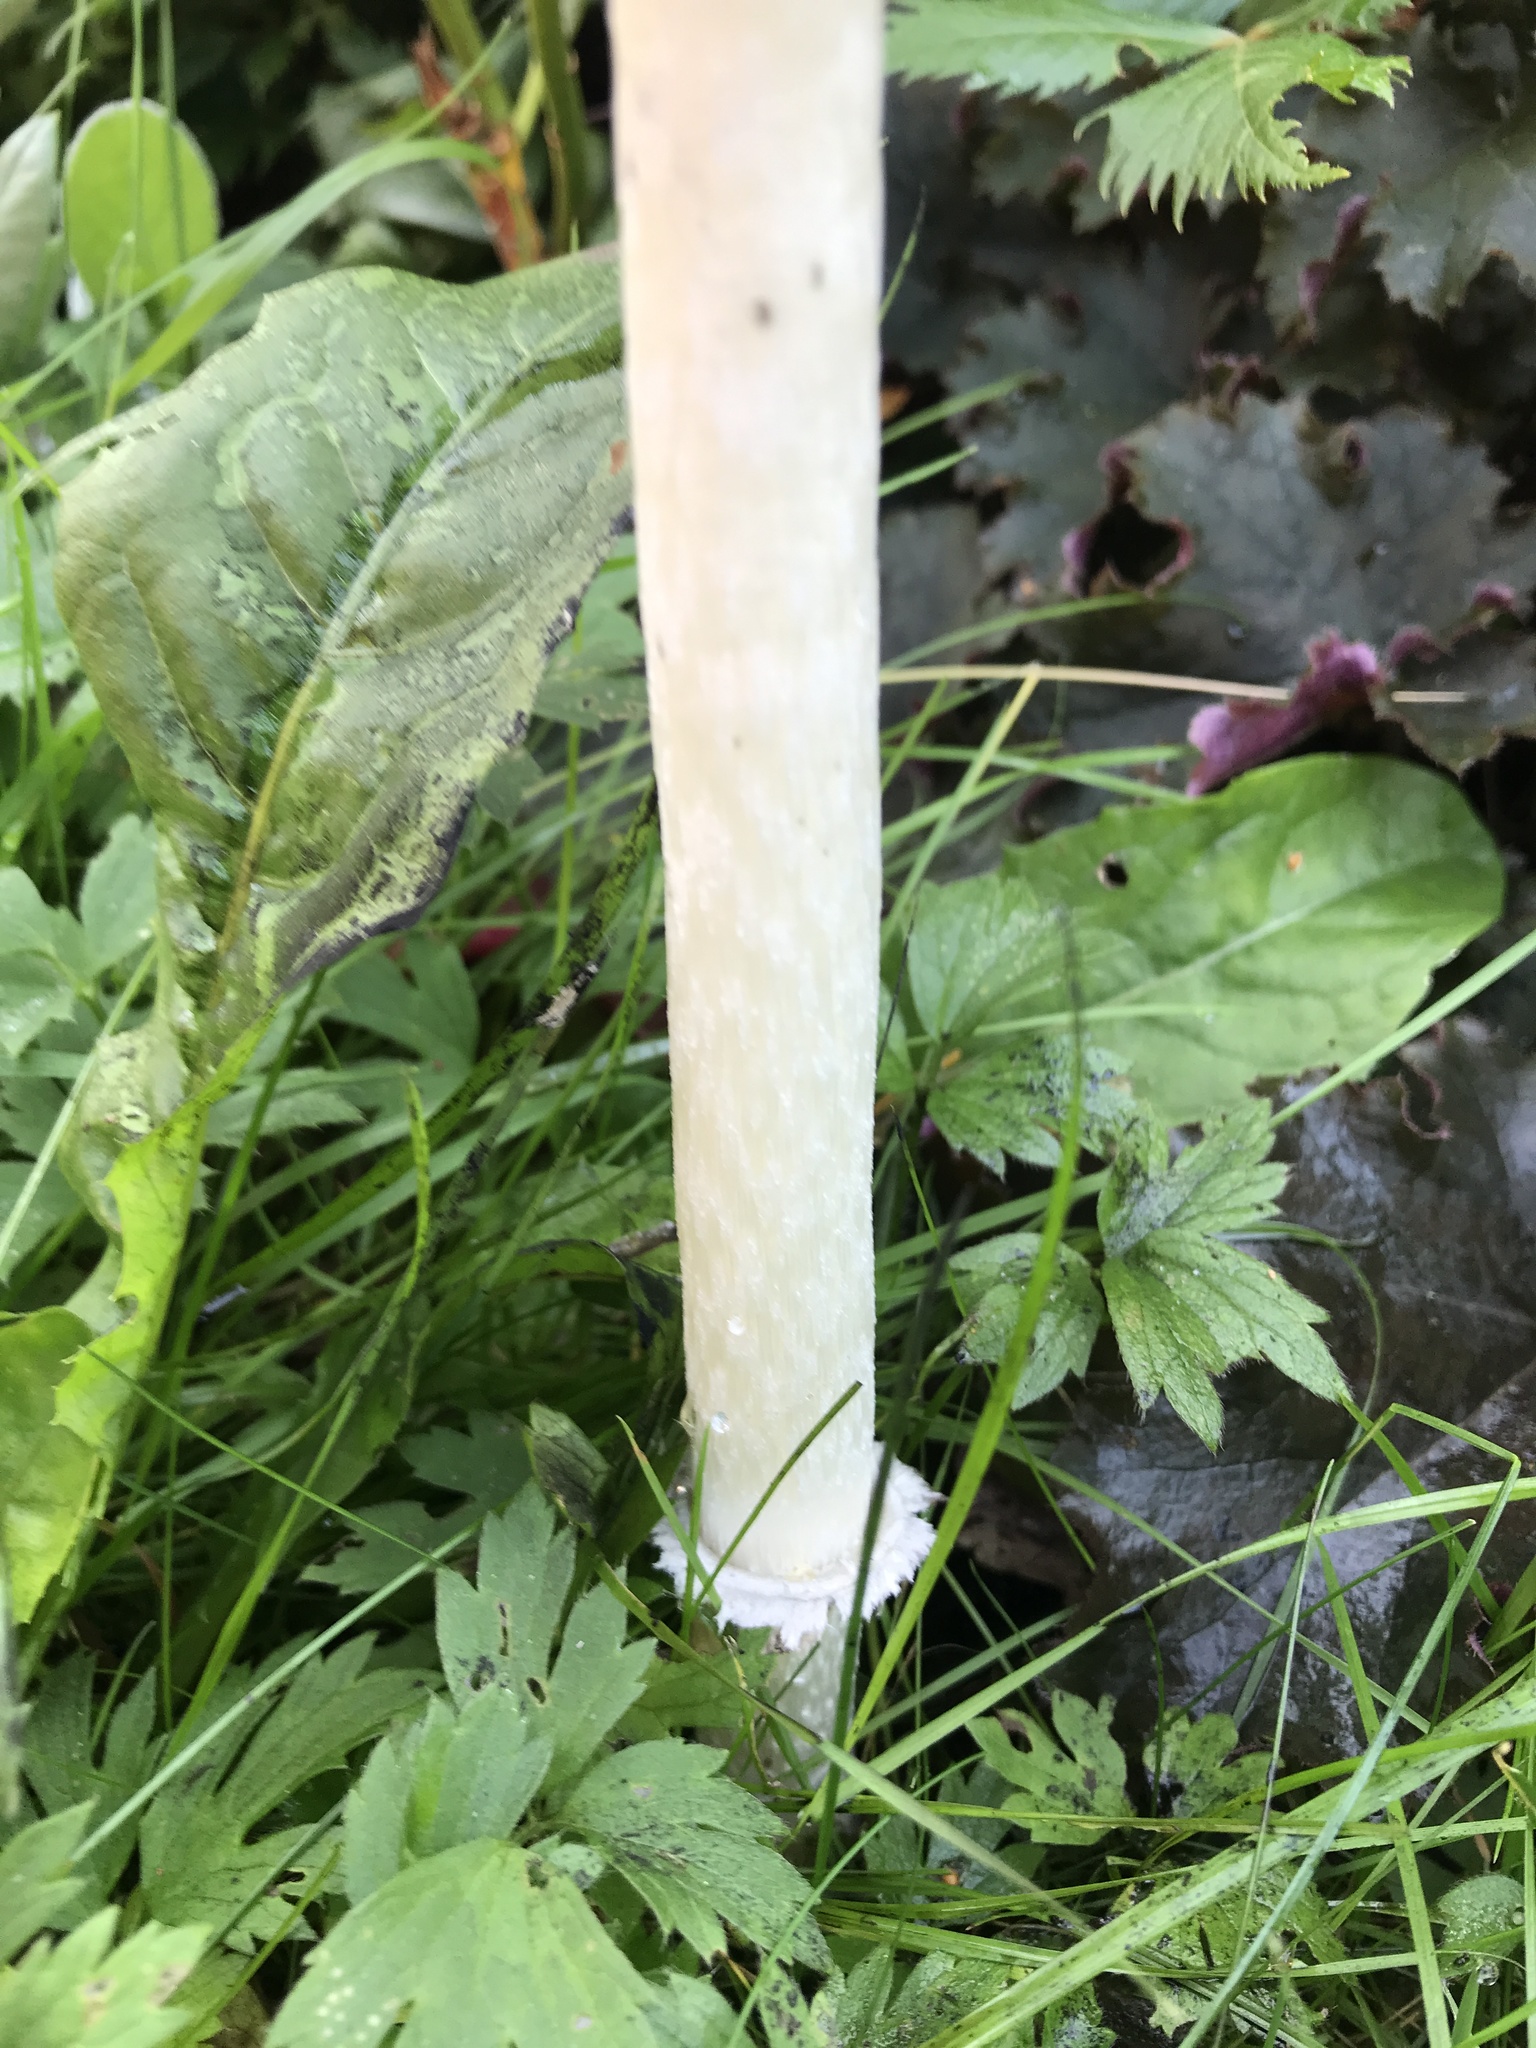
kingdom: Fungi
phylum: Basidiomycota
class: Agaricomycetes
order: Agaricales
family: Agaricaceae
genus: Coprinus
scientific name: Coprinus comatus
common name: Lawyer's wig
